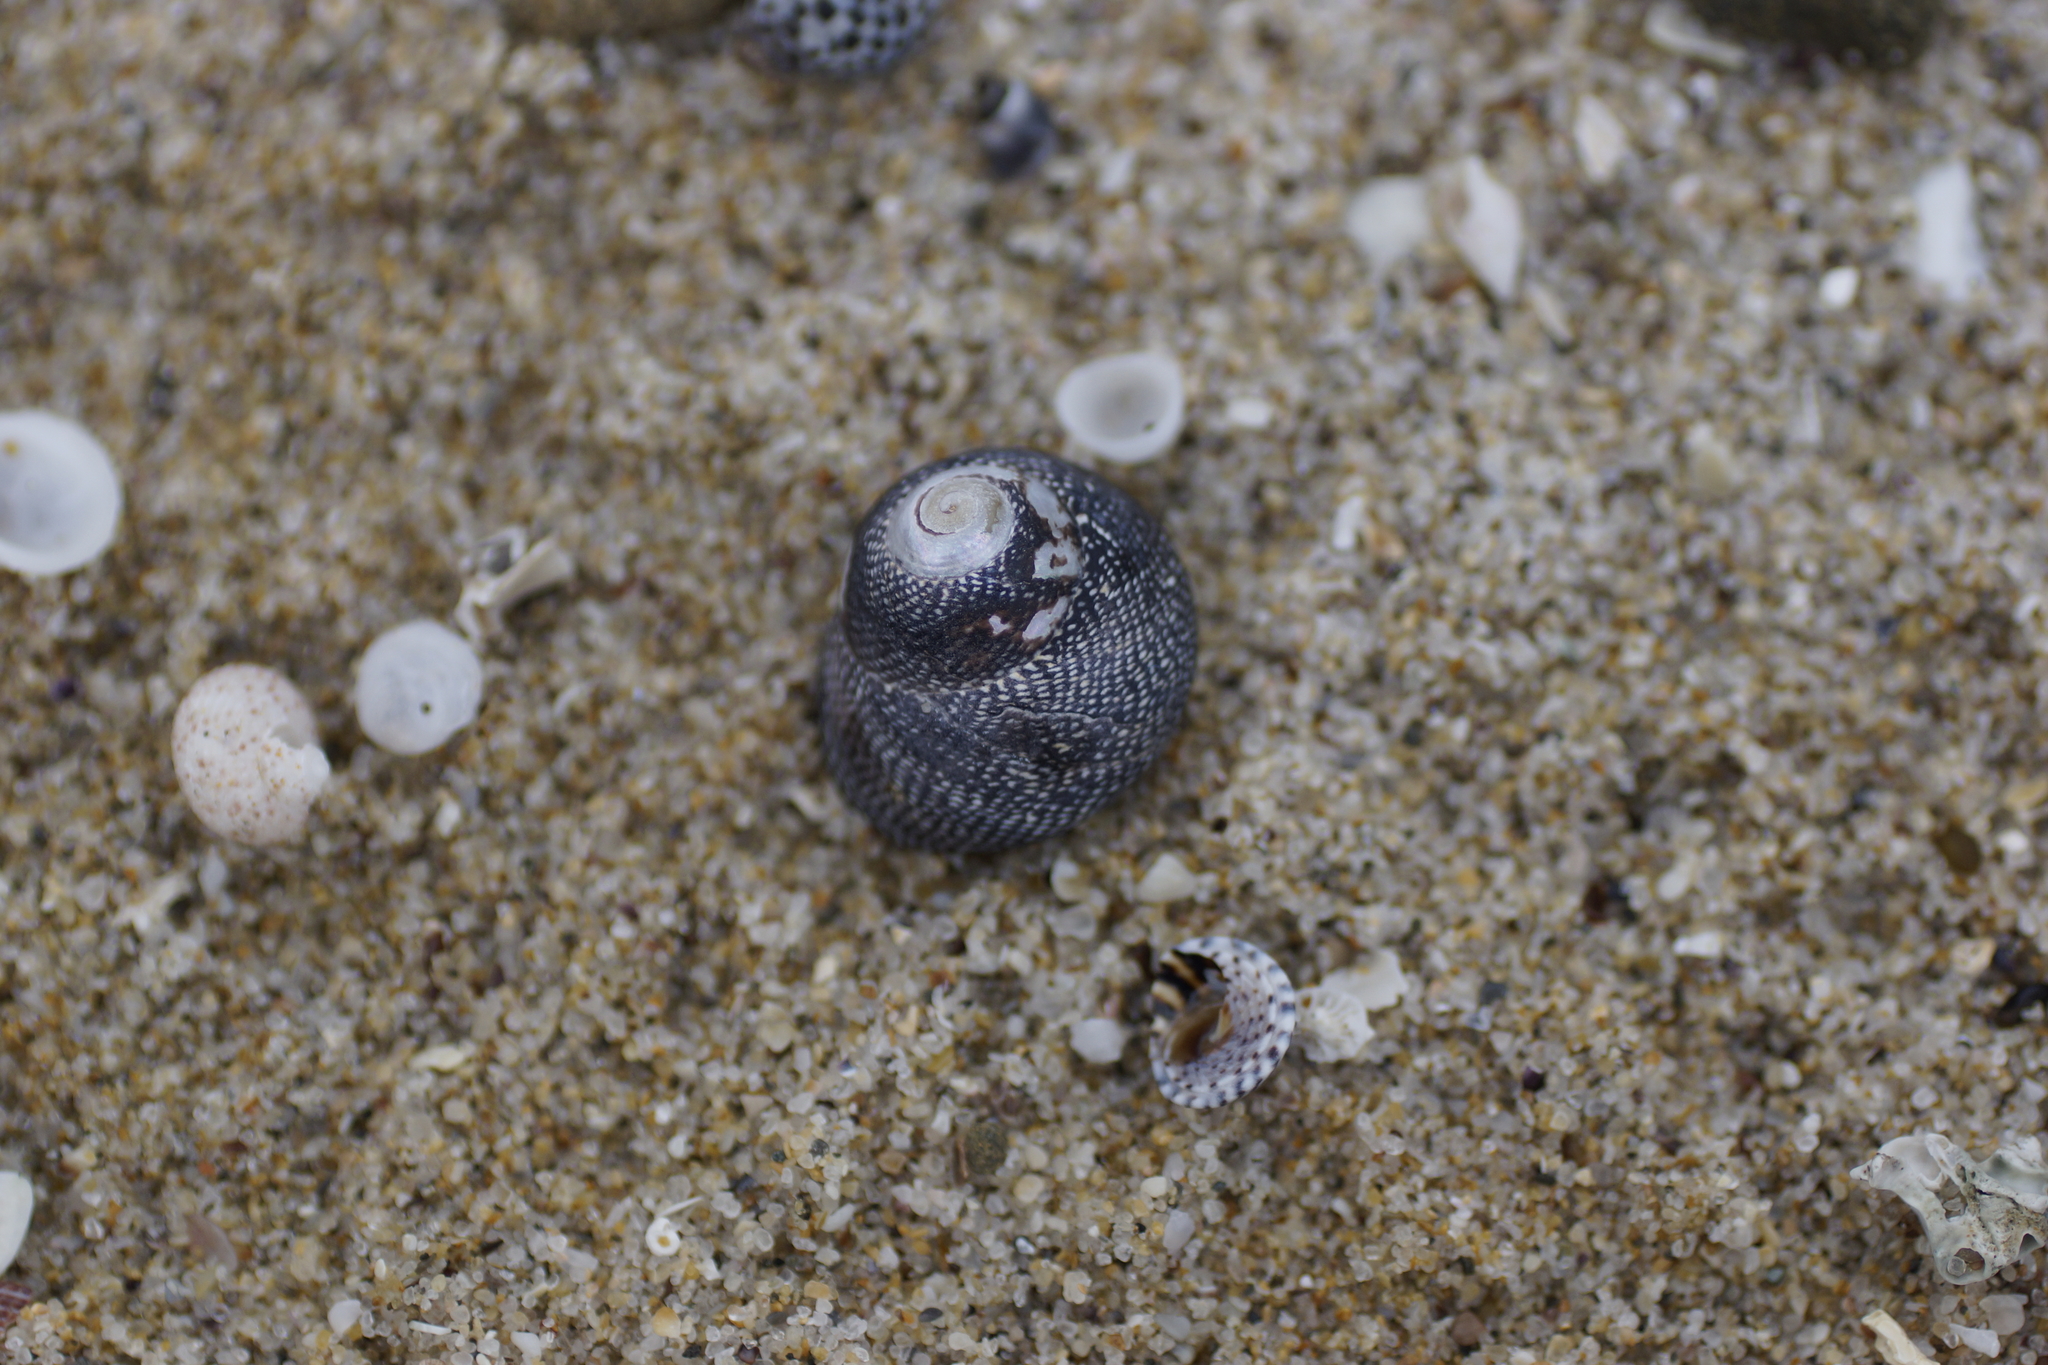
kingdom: Animalia
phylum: Mollusca
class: Gastropoda
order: Trochida
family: Trochidae
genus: Chlorodiloma
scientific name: Chlorodiloma odontis
